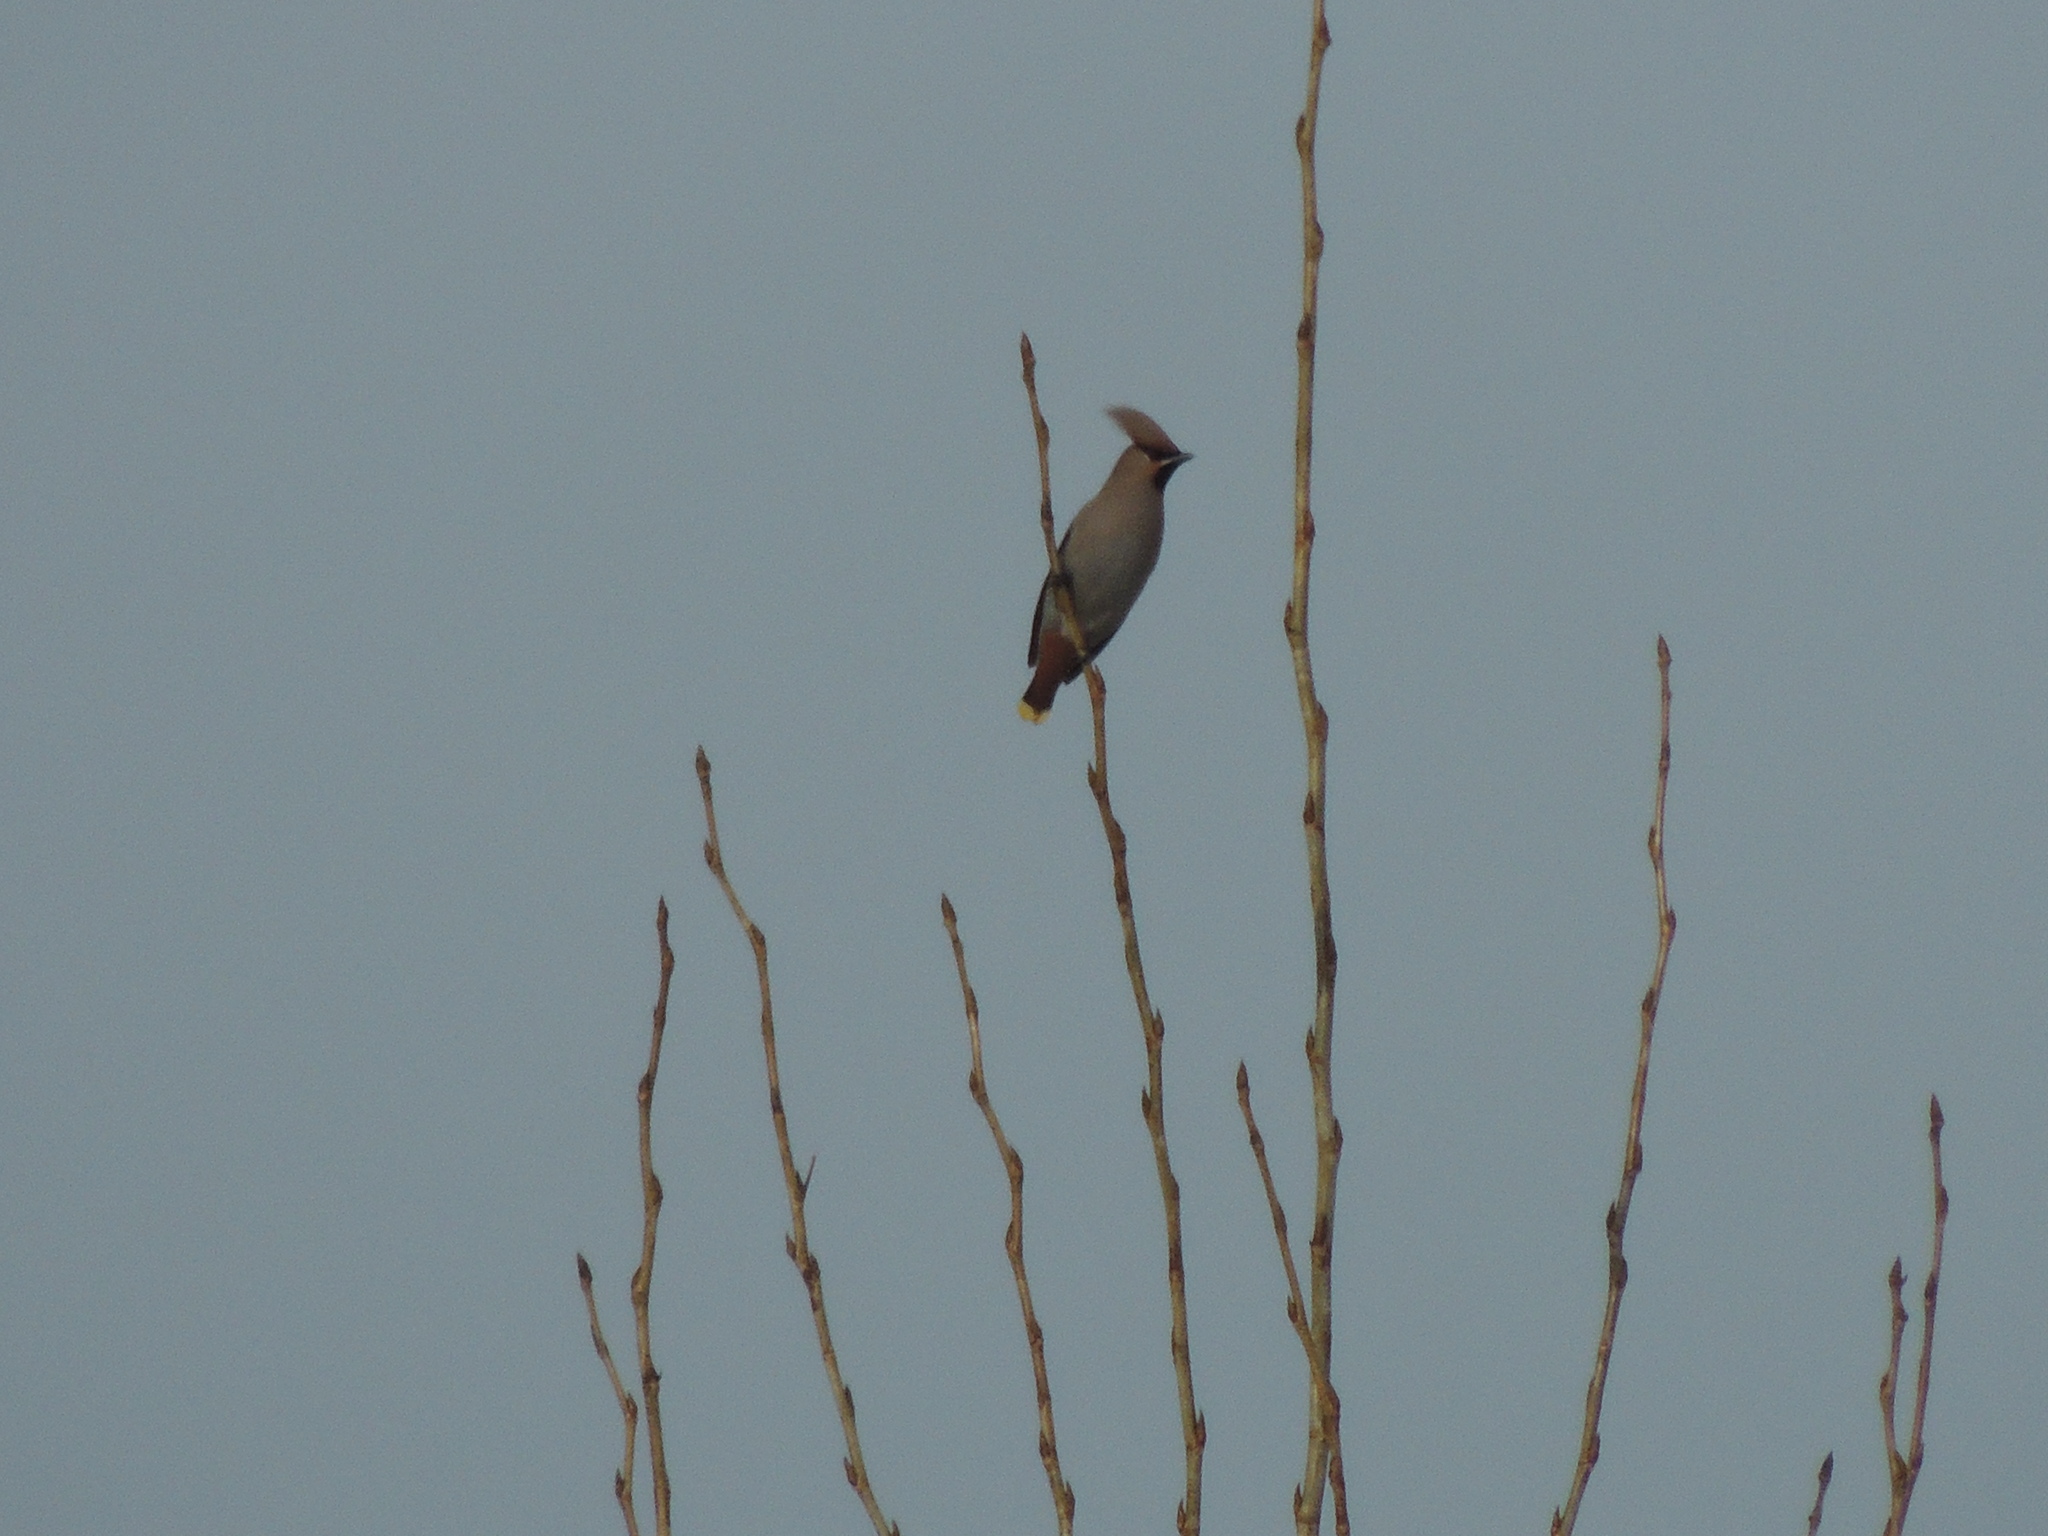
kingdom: Animalia
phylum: Chordata
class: Aves
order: Passeriformes
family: Bombycillidae
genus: Bombycilla
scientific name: Bombycilla garrulus
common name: Bohemian waxwing
